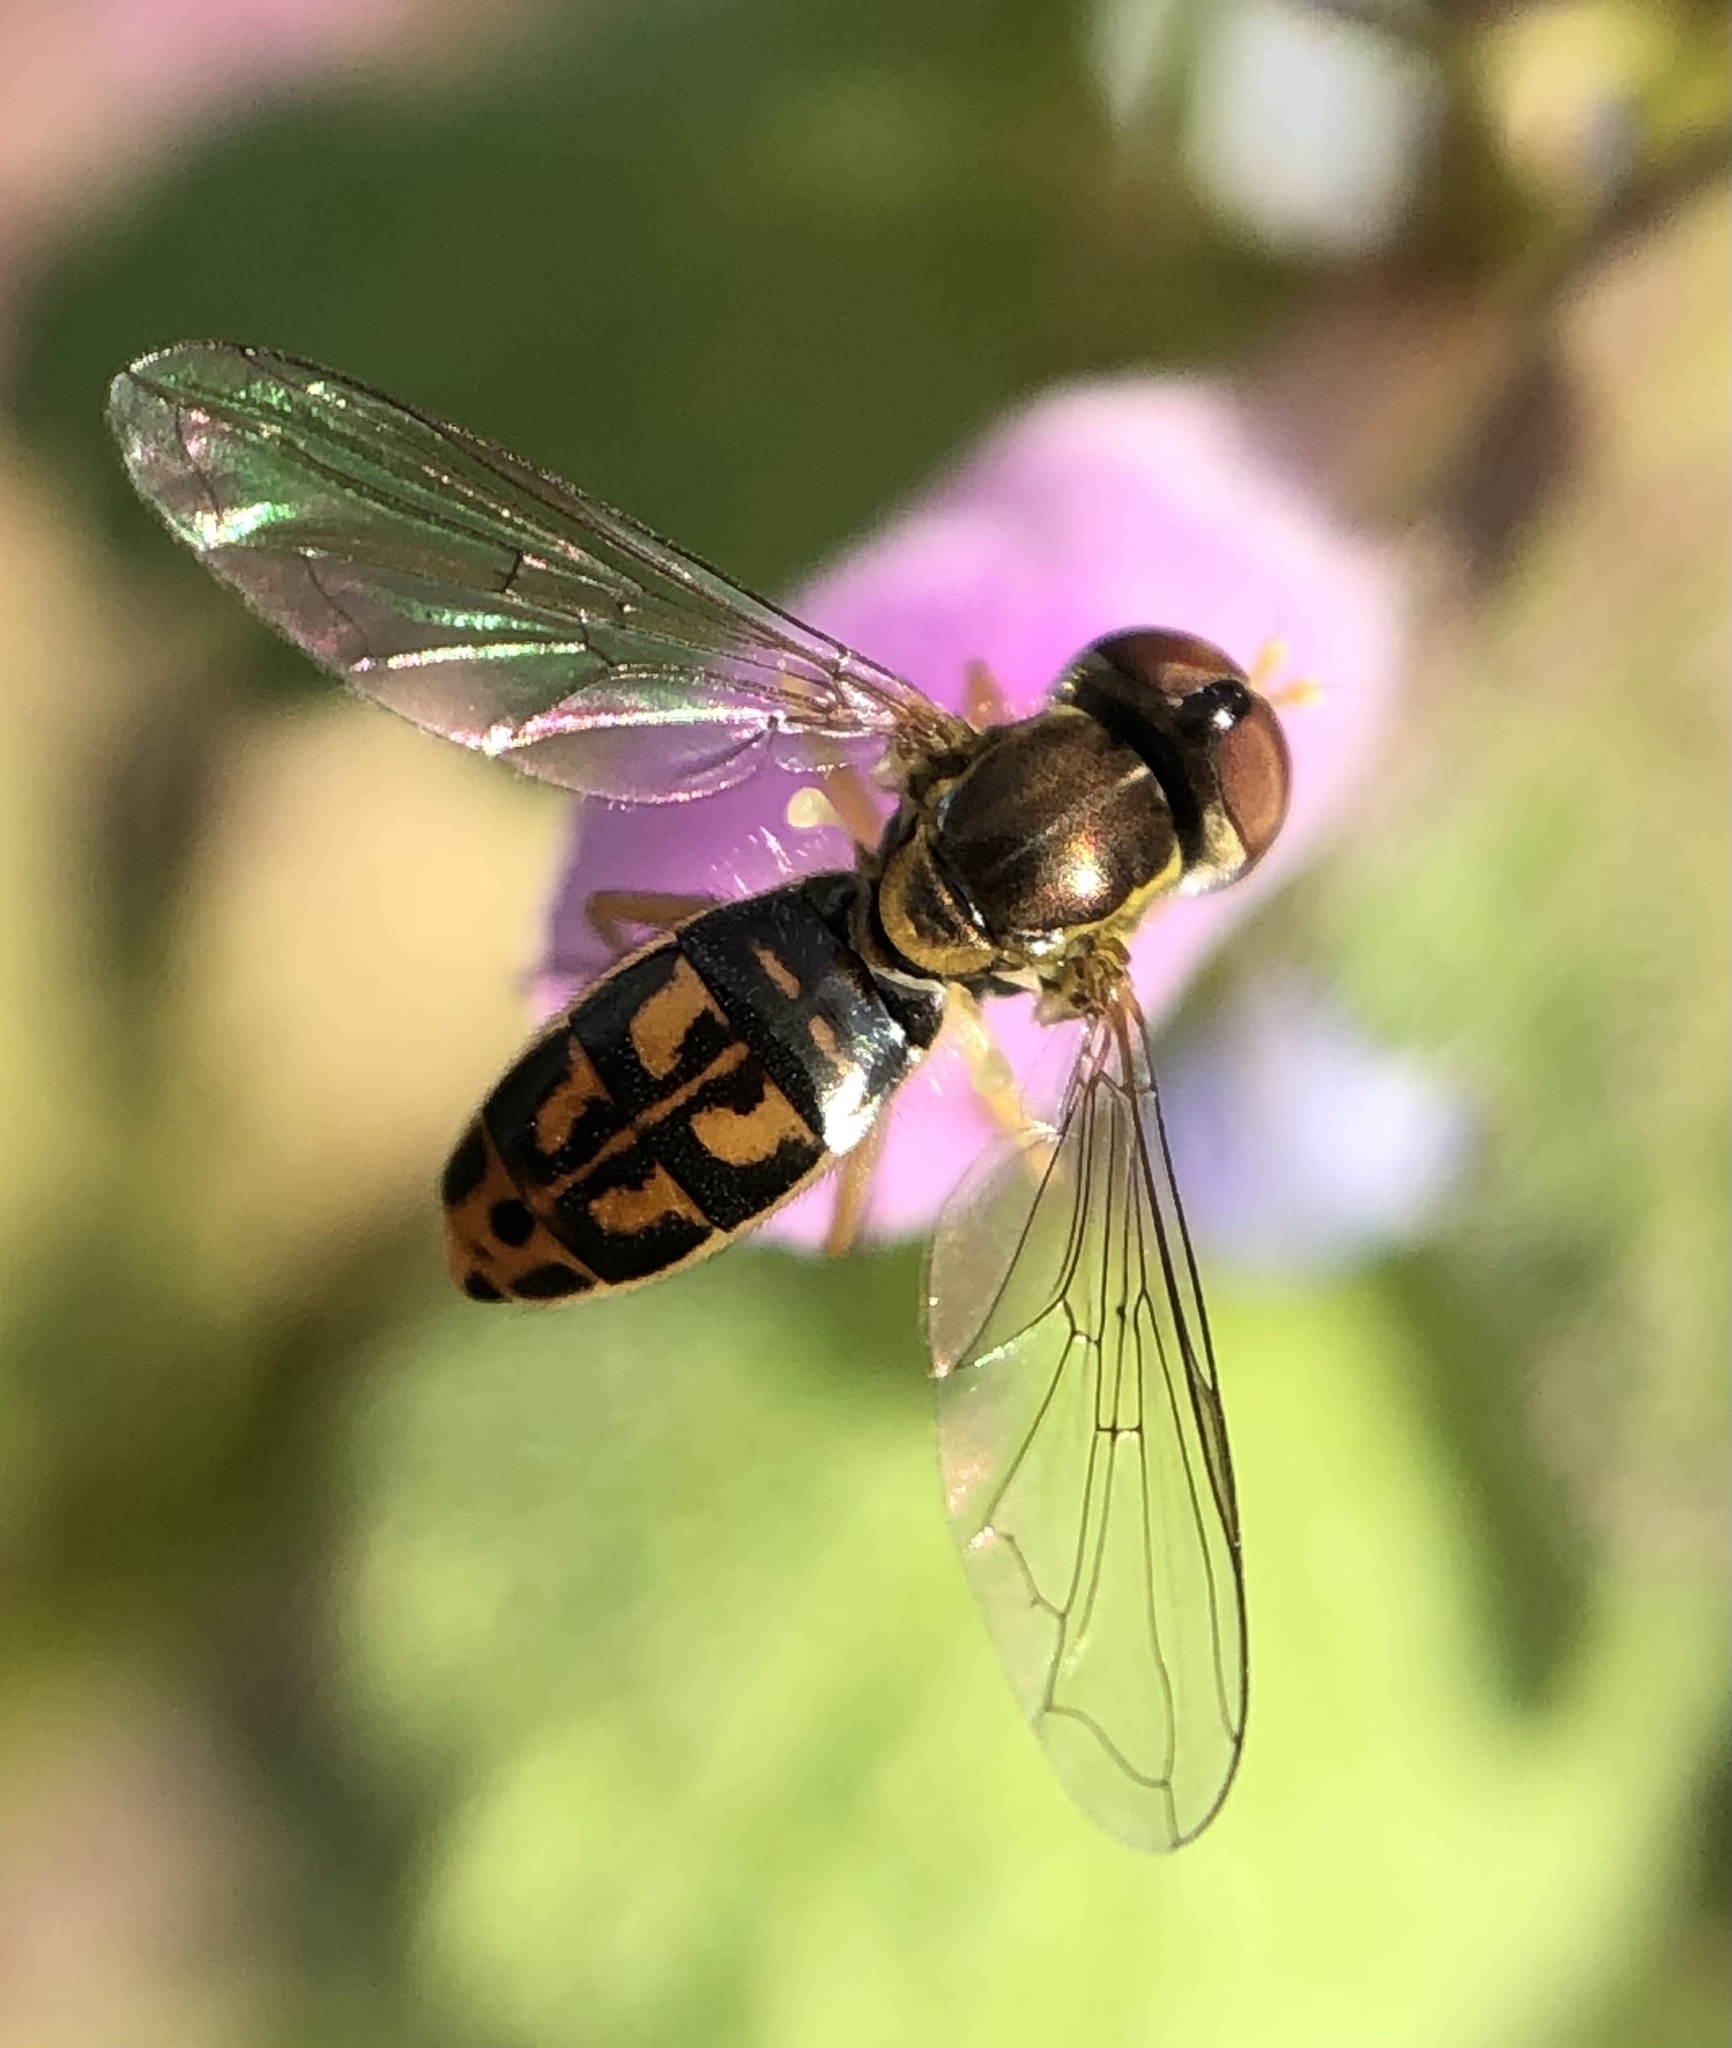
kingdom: Animalia
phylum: Arthropoda
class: Insecta
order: Diptera
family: Syrphidae
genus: Toxomerus
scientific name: Toxomerus marginatus
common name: Syrphid fly
